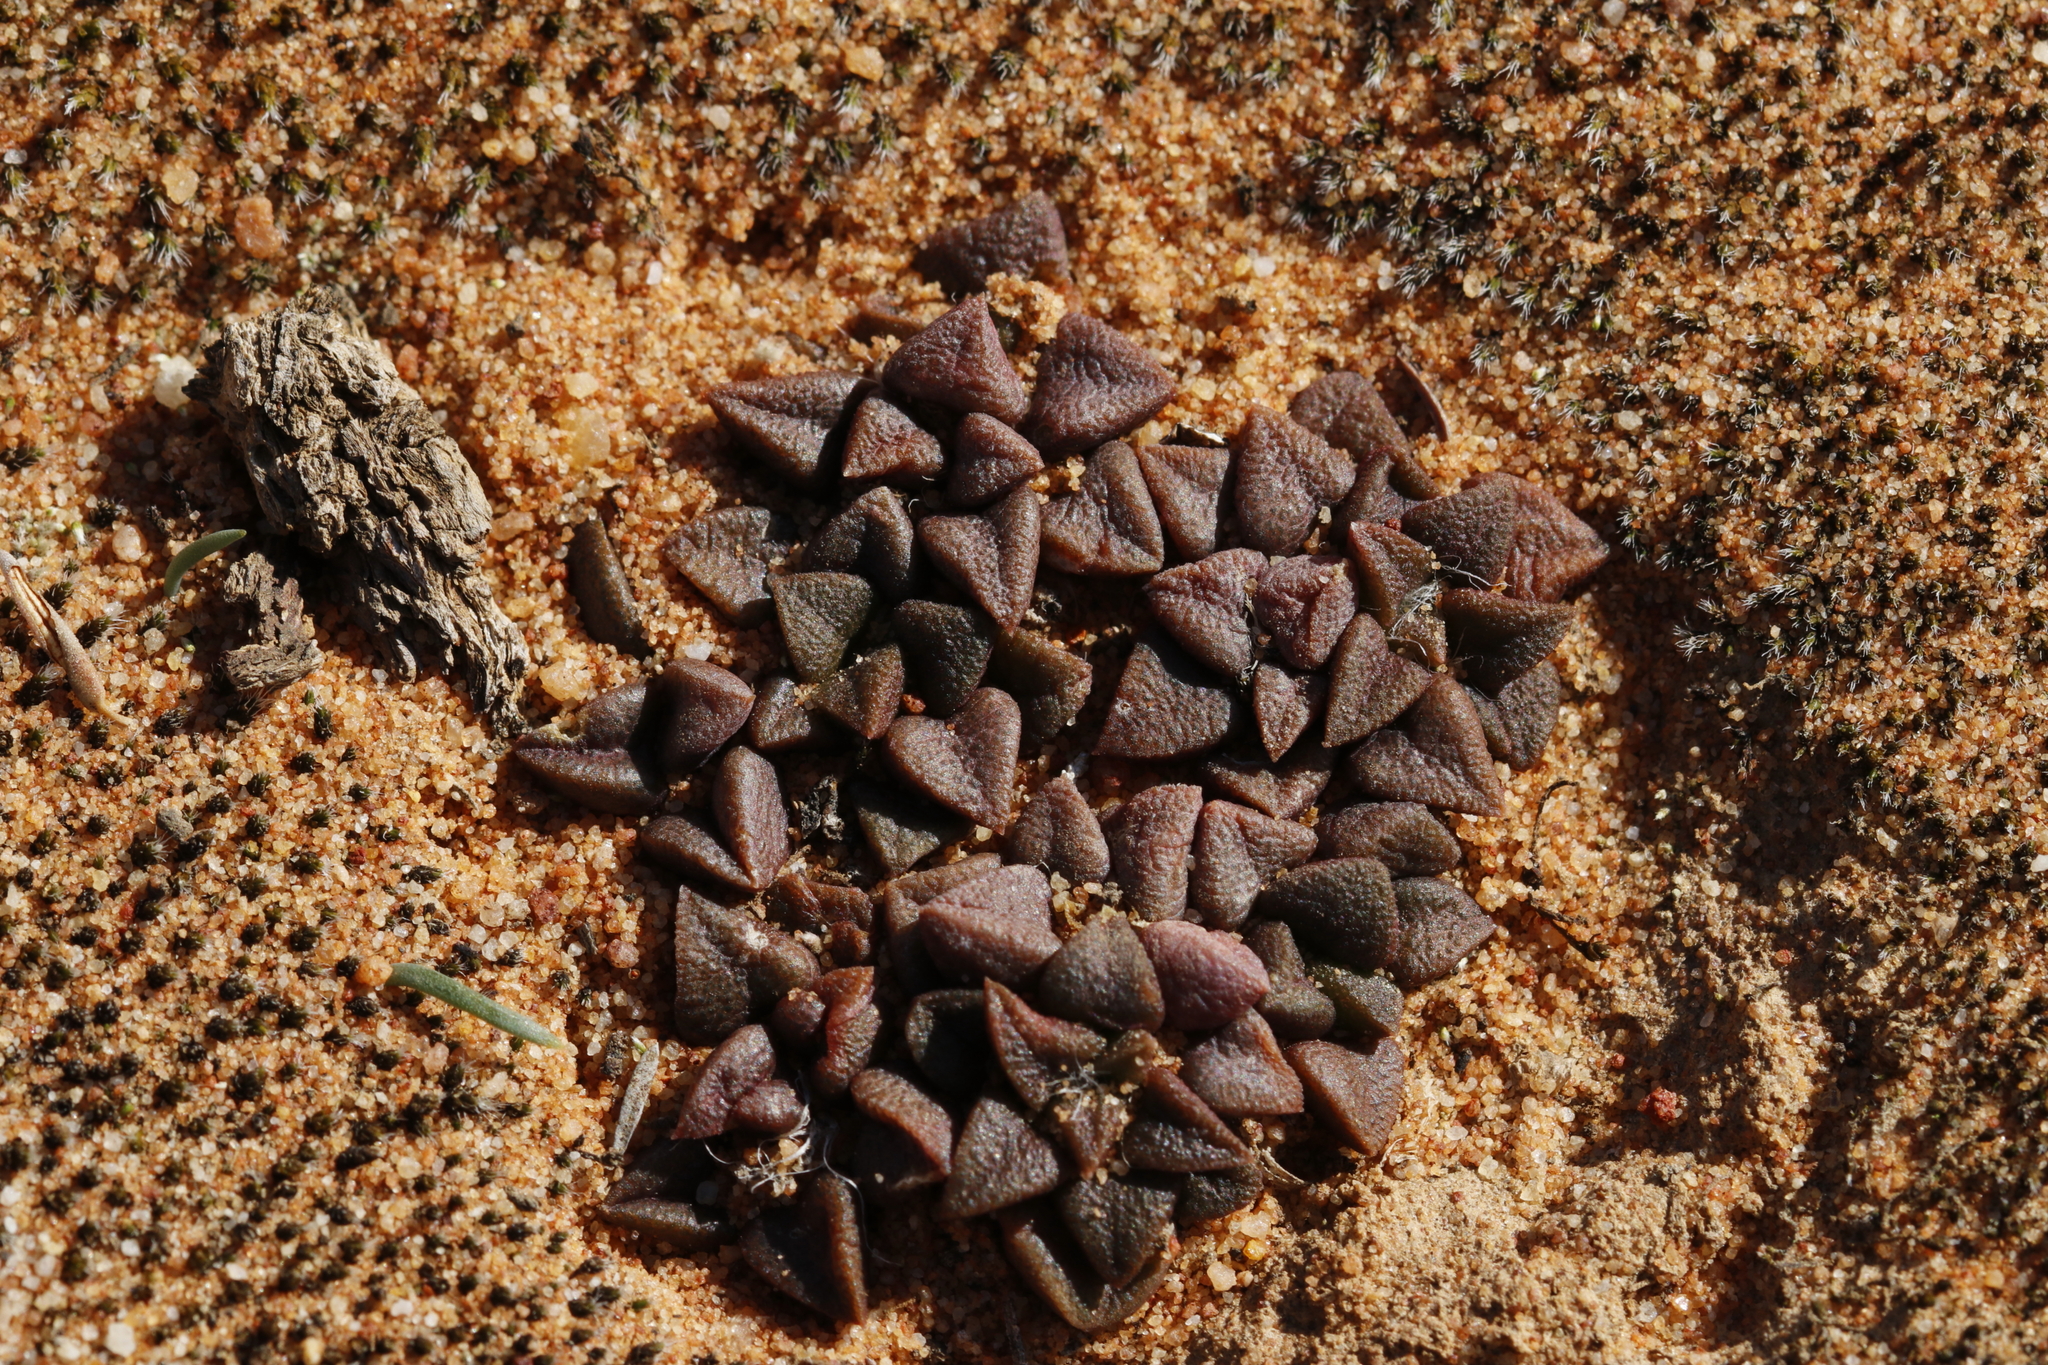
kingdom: Plantae
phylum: Tracheophyta
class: Magnoliopsida
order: Caryophyllales
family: Anacampserotaceae
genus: Anacampseros
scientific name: Anacampseros retusa
